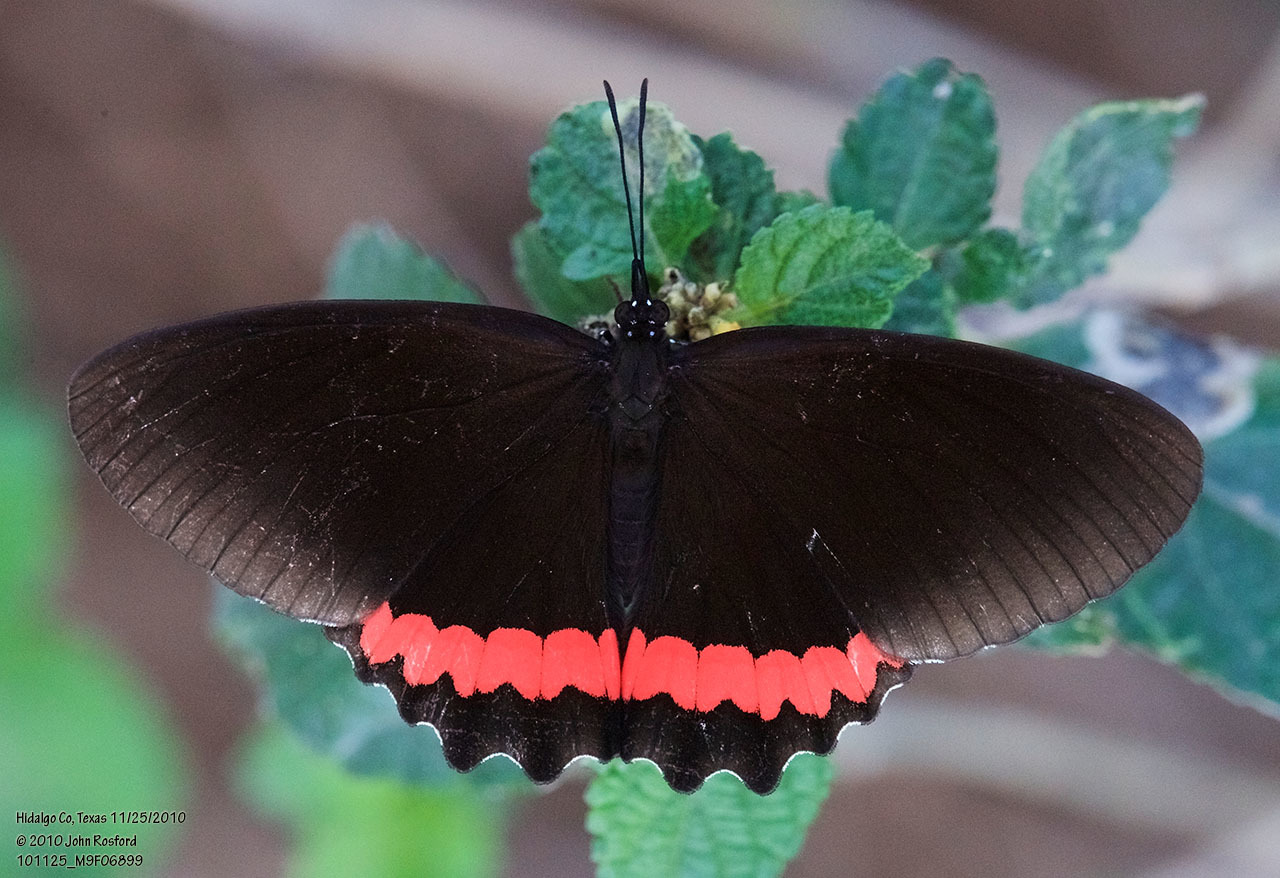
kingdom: Animalia
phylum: Arthropoda
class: Insecta
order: Lepidoptera
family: Nymphalidae
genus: Biblis
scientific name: Biblis aganisa
